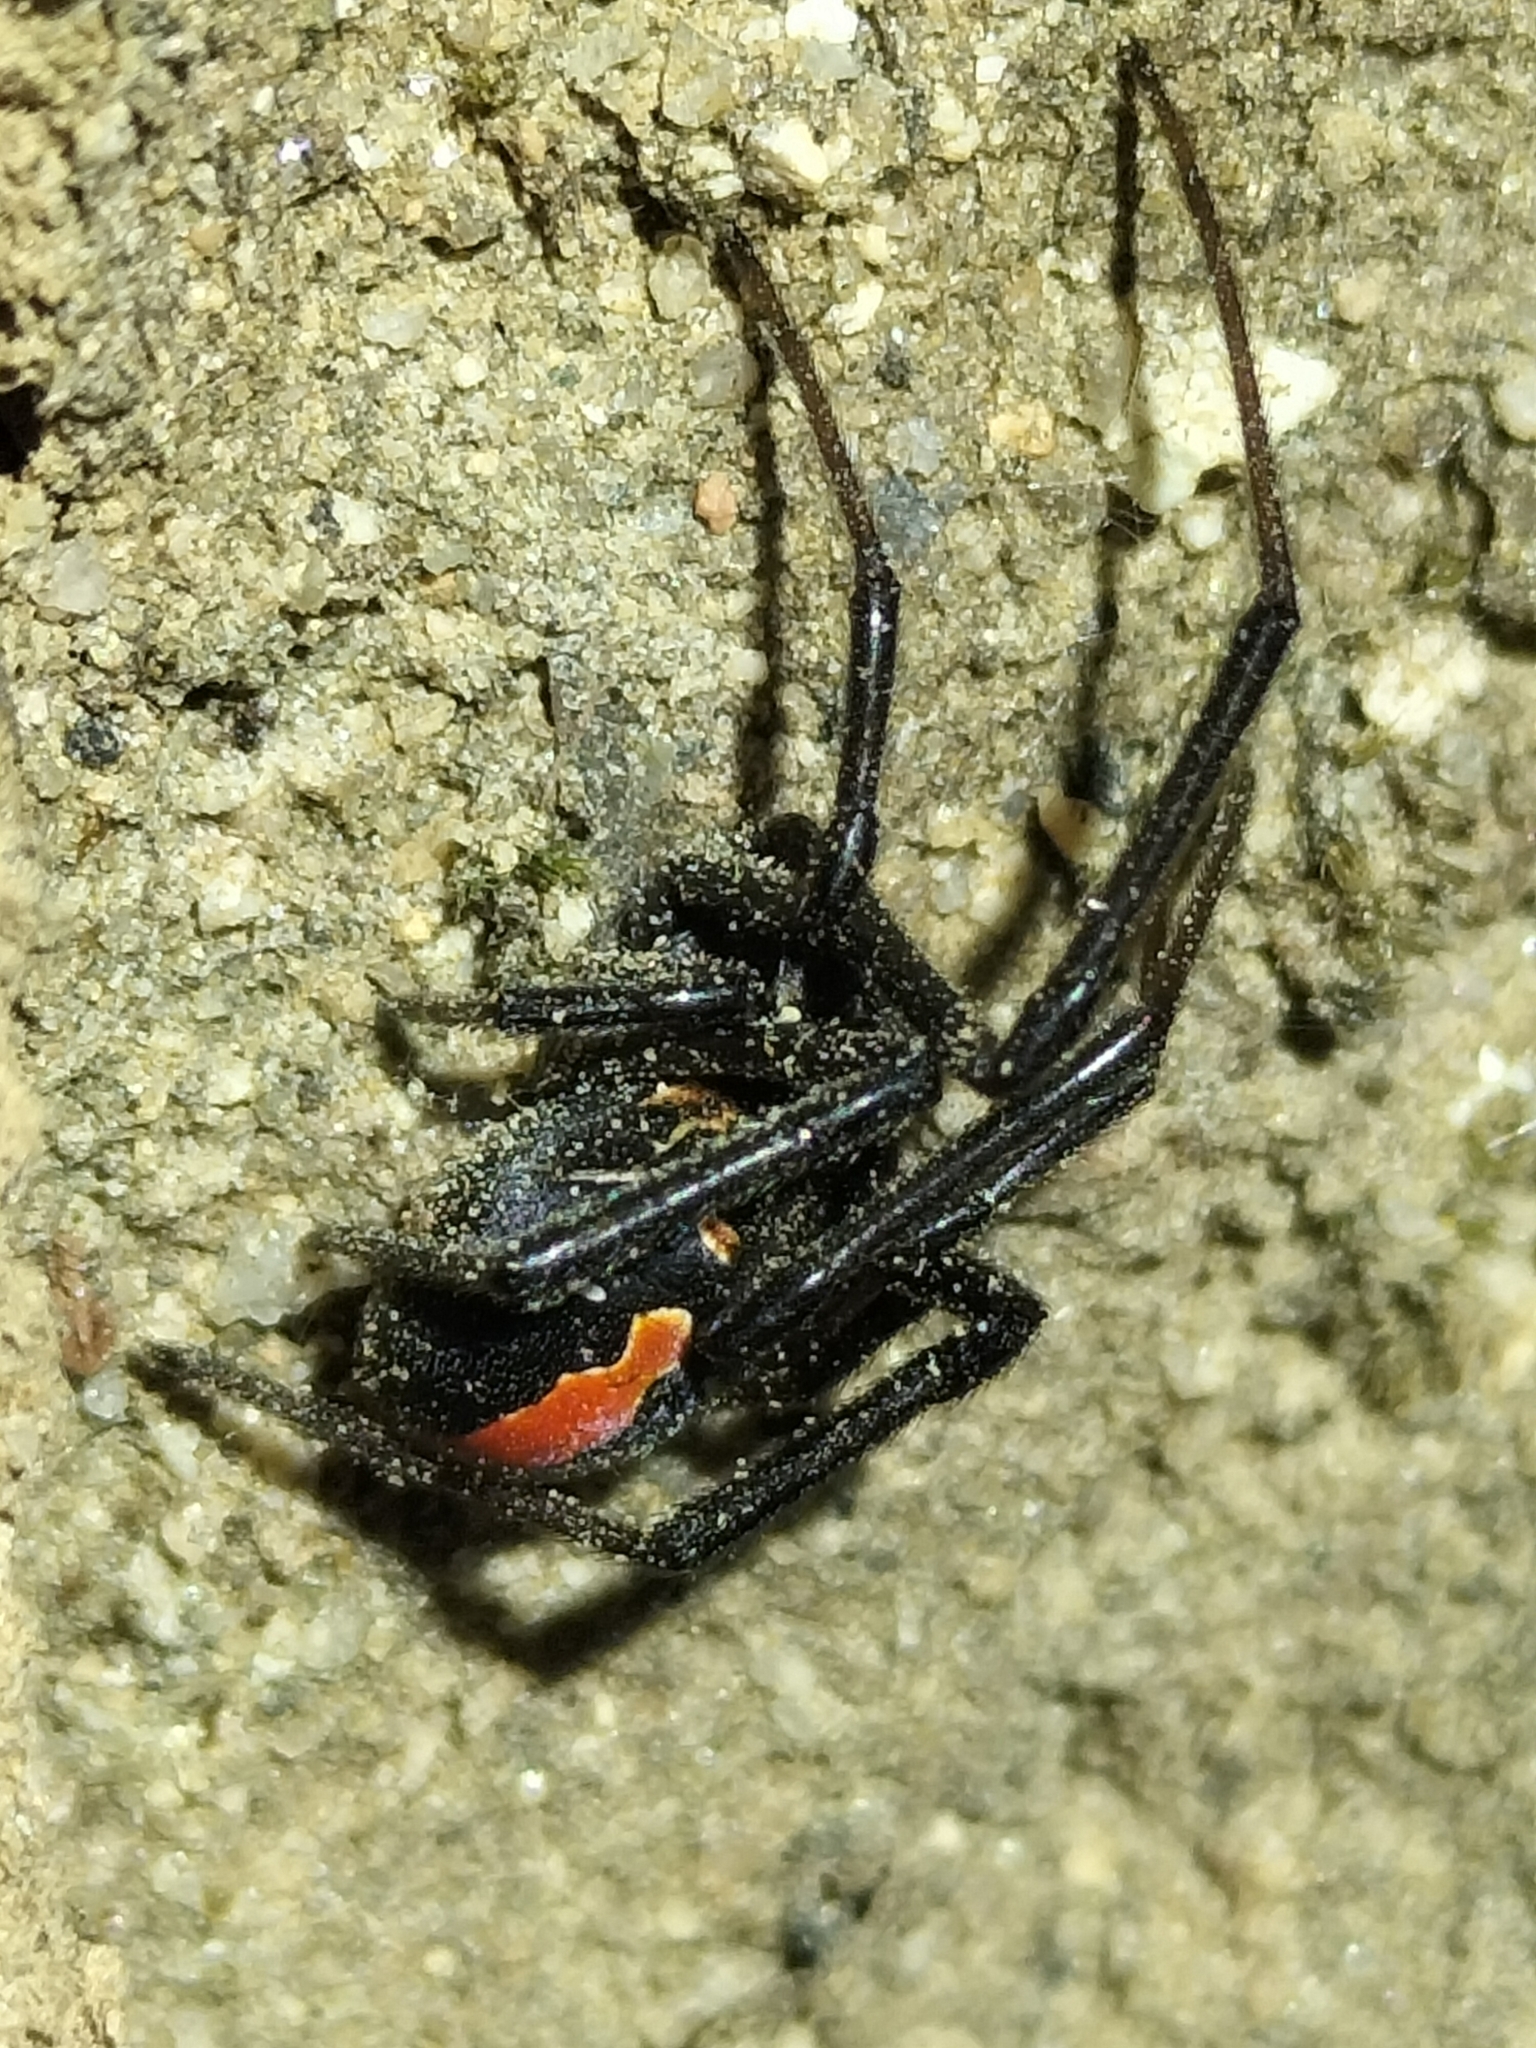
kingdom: Animalia
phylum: Arthropoda
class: Arachnida
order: Araneae
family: Theridiidae
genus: Latrodectus
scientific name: Latrodectus hasselti
